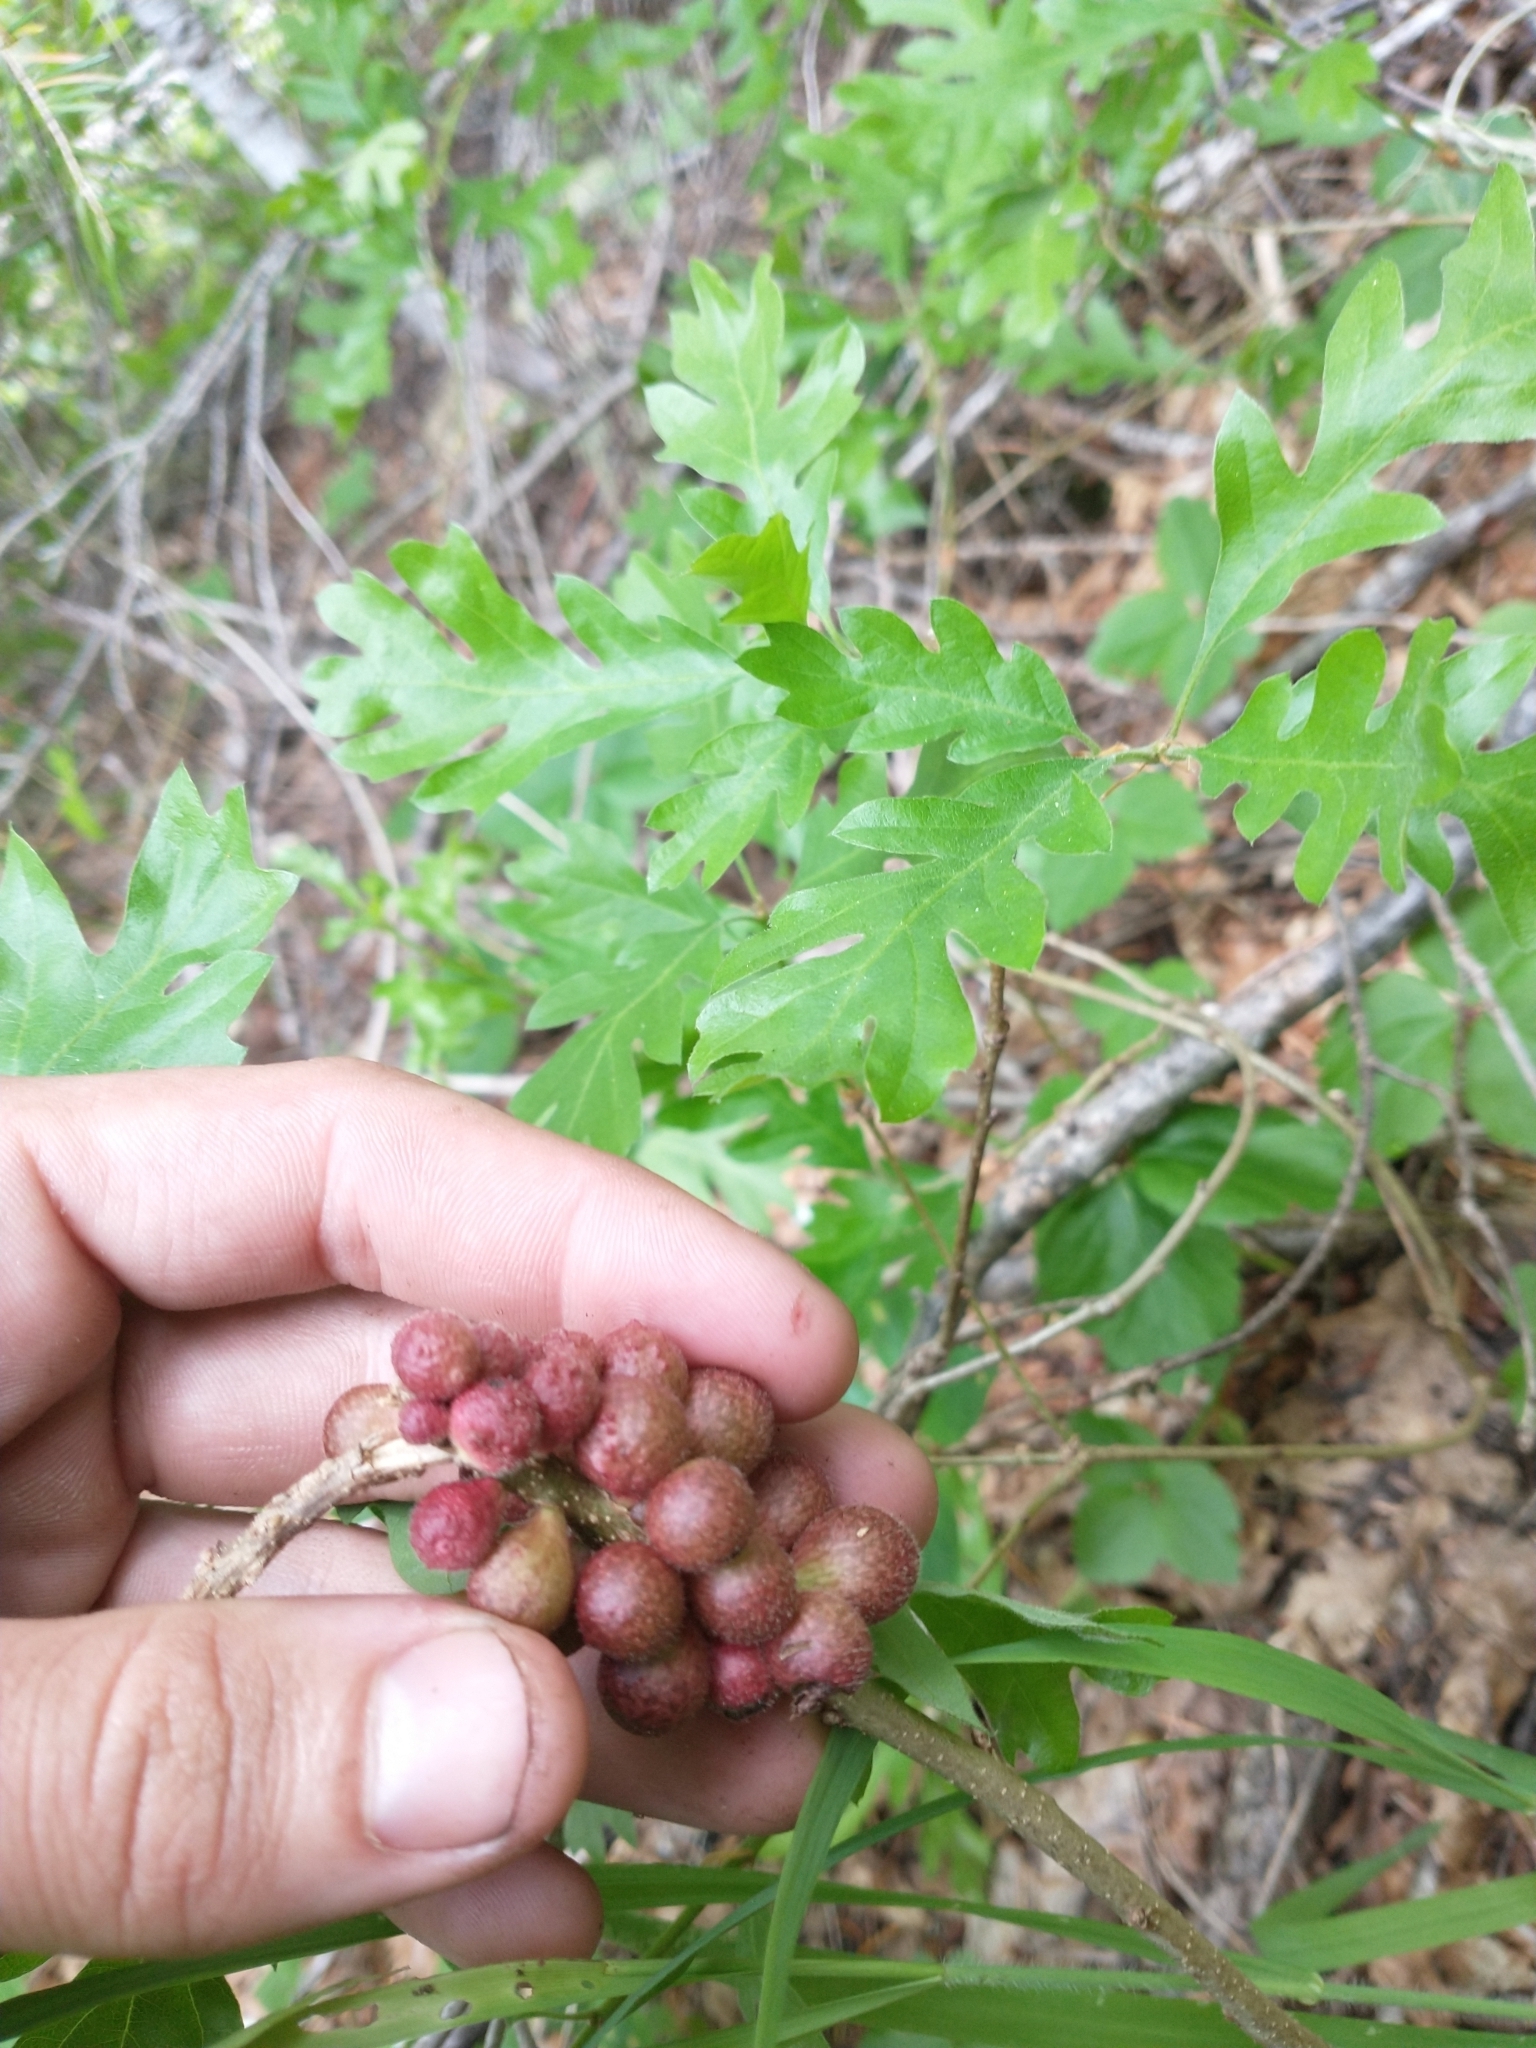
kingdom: Plantae
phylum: Tracheophyta
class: Magnoliopsida
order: Fagales
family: Fagaceae
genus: Quercus
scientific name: Quercus garryana
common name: Garry oak
